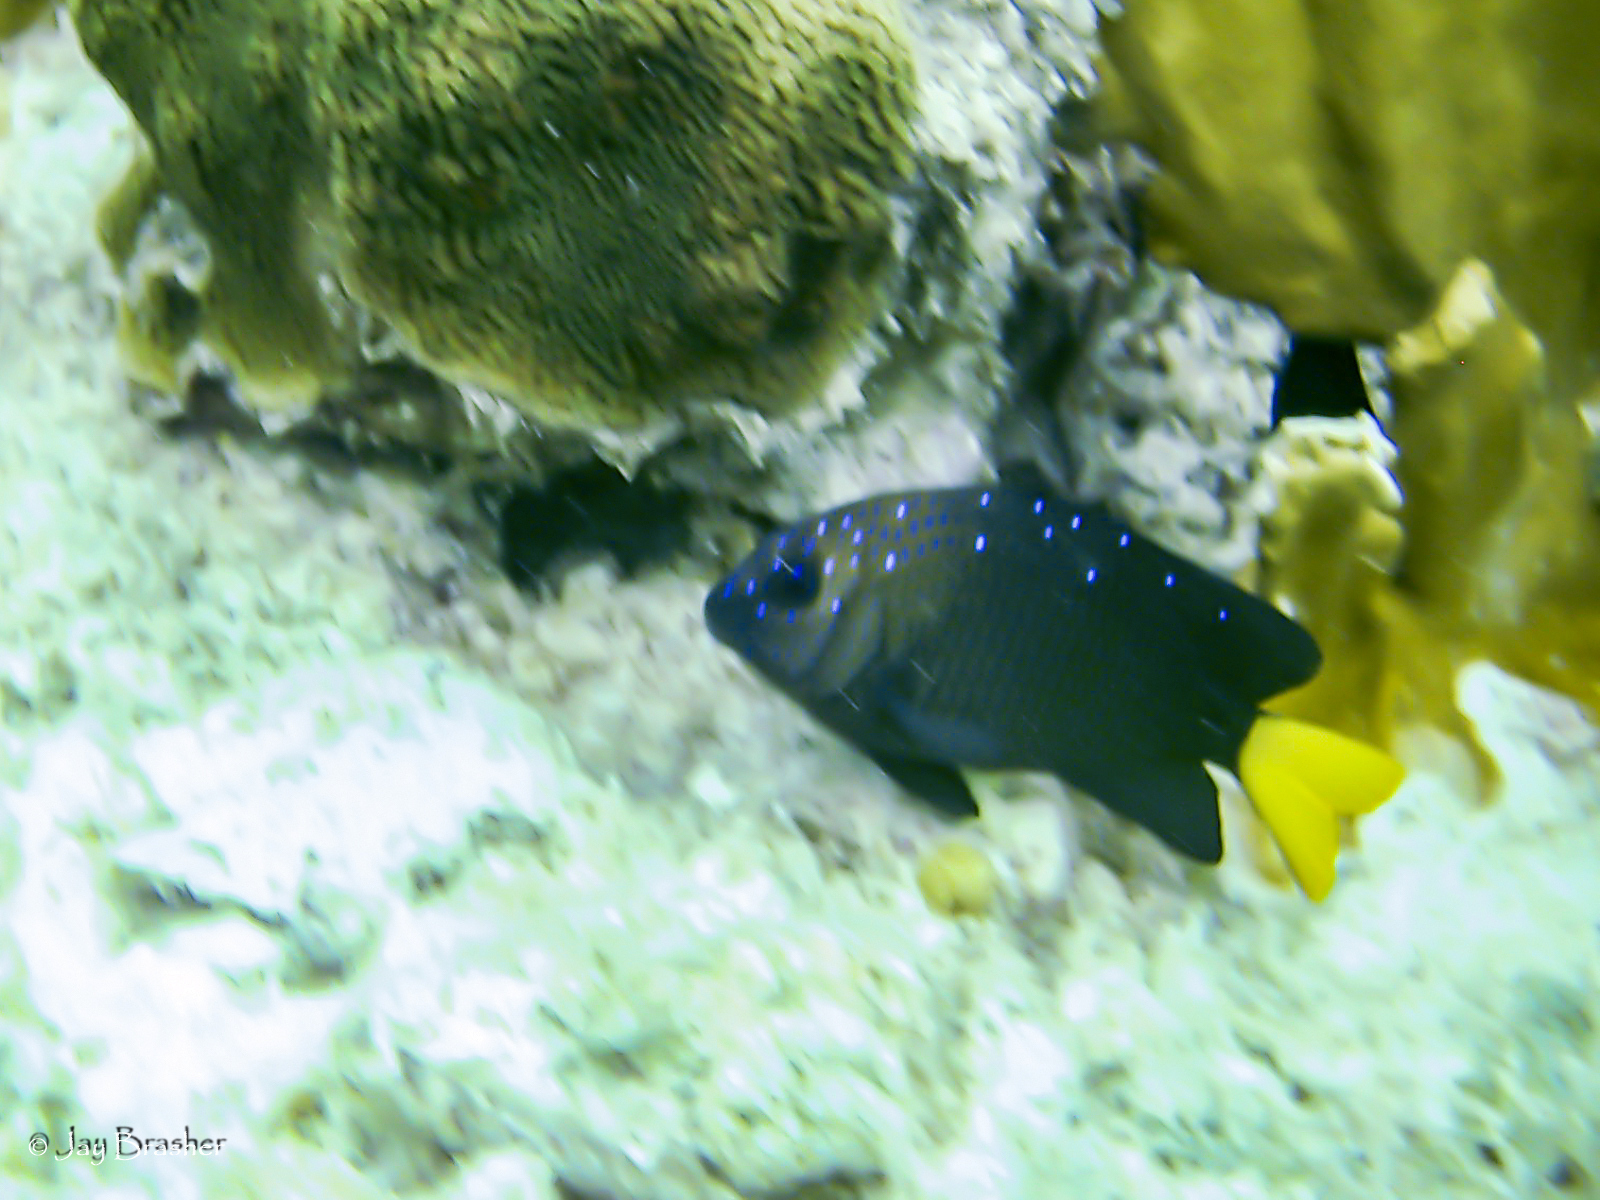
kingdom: Animalia
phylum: Chordata
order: Perciformes
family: Pomacentridae
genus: Microspathodon
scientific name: Microspathodon chrysurus
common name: Yellowtail damselfish
